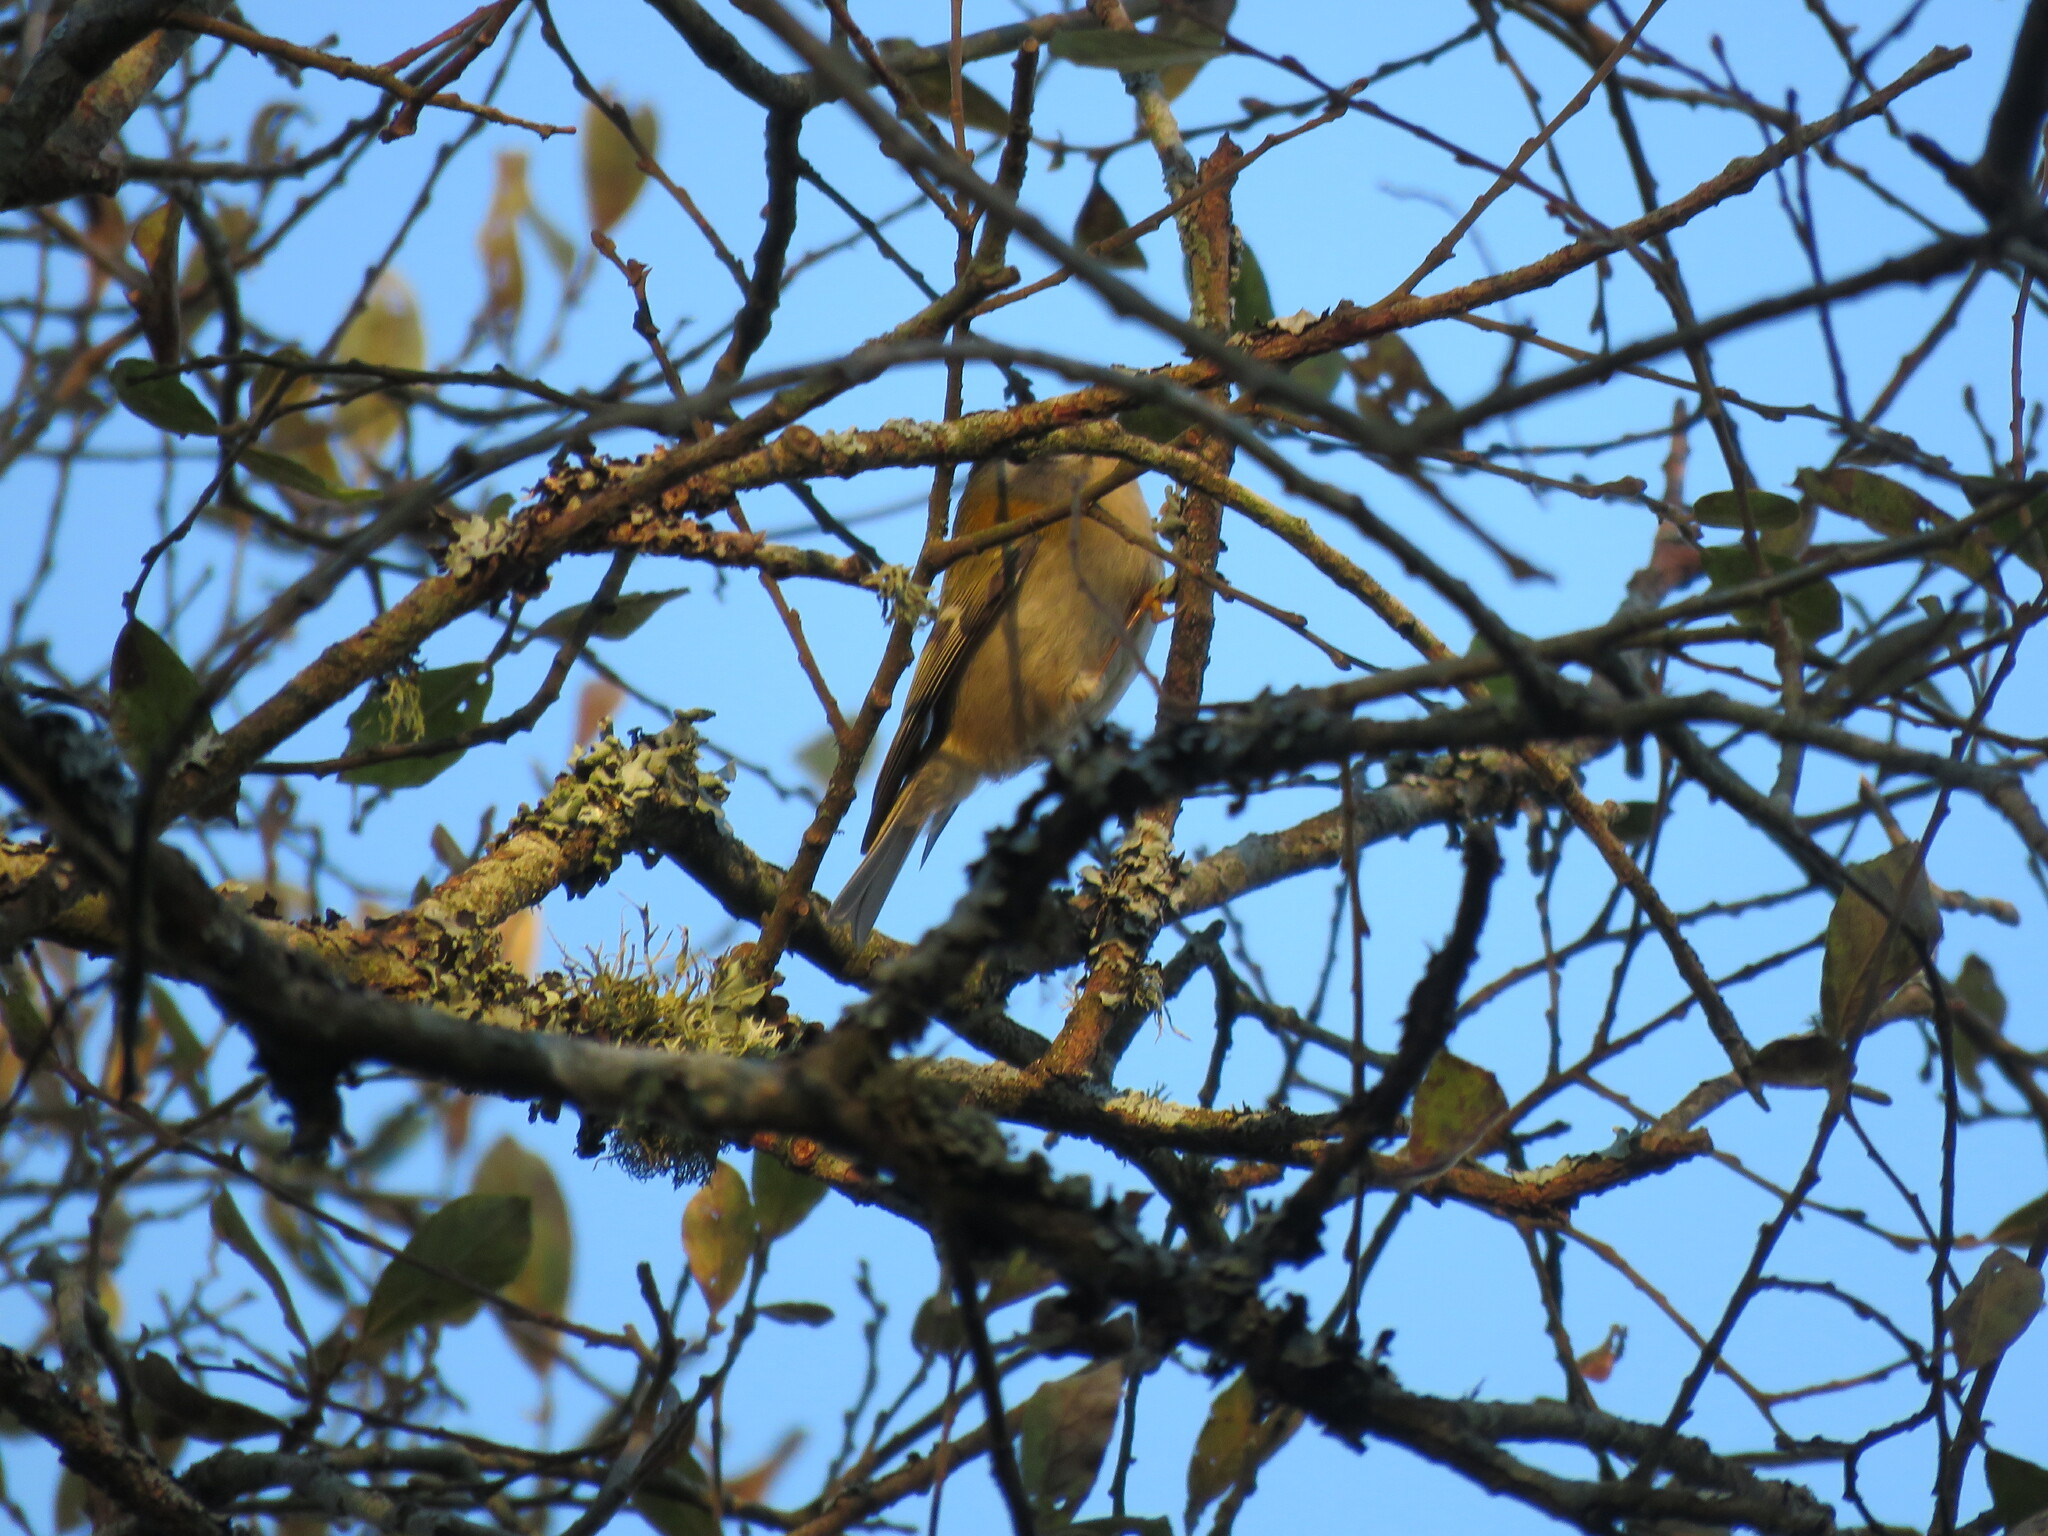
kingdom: Animalia
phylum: Chordata
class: Aves
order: Passeriformes
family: Regulidae
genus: Regulus
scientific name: Regulus ignicapilla
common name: Firecrest
